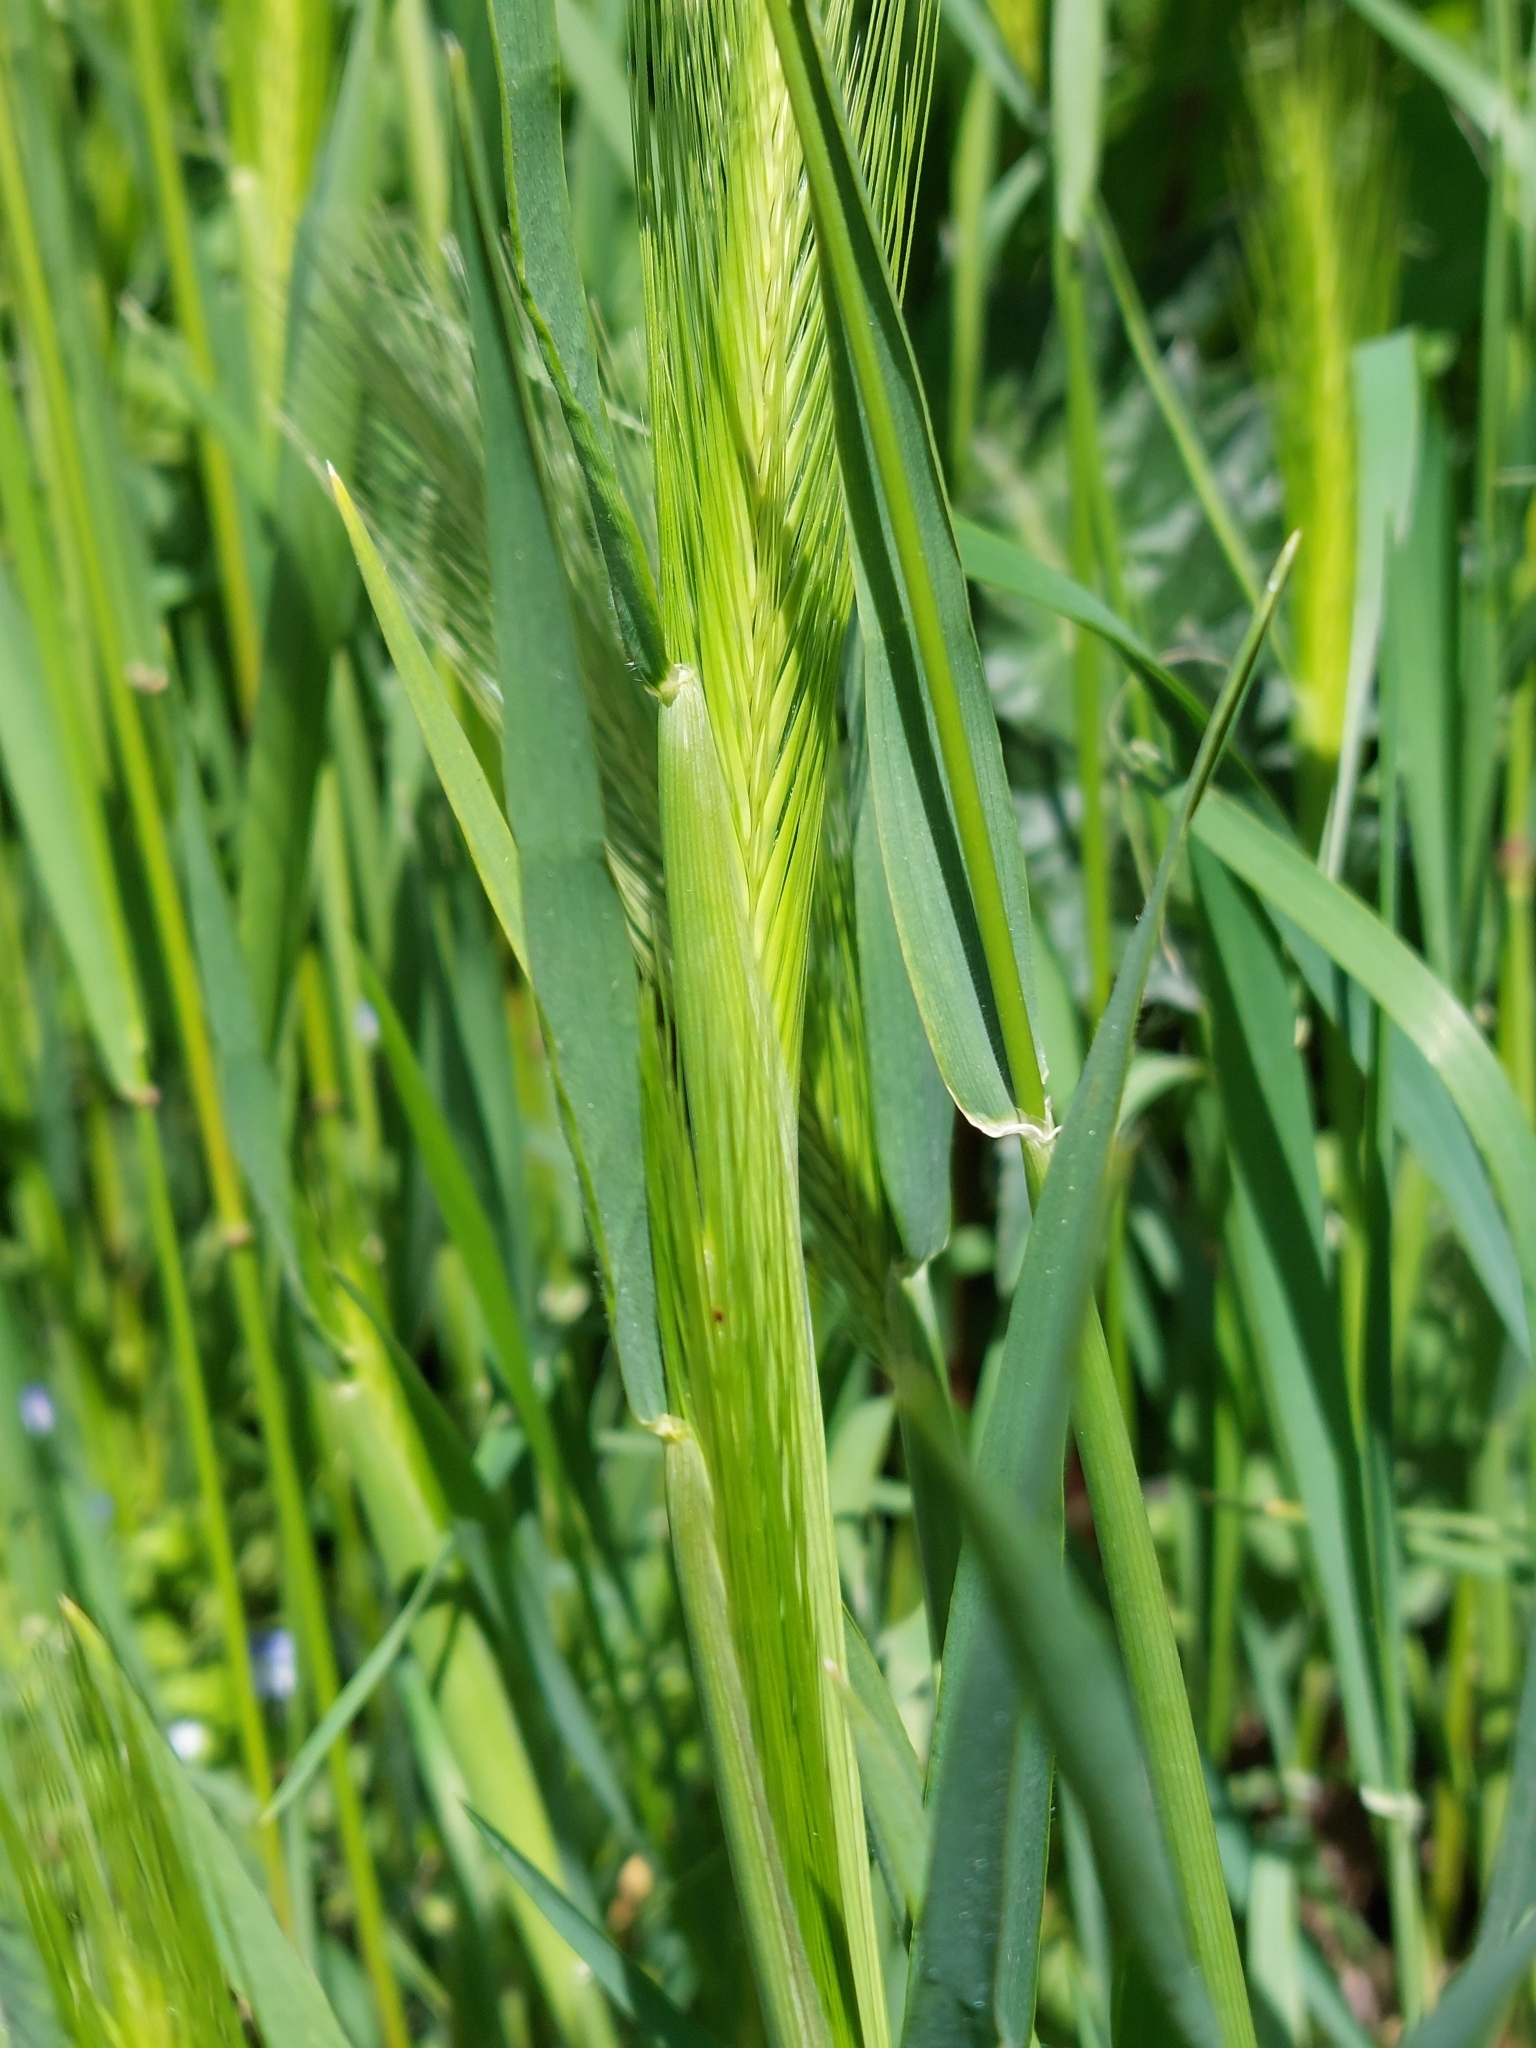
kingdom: Plantae
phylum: Tracheophyta
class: Liliopsida
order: Poales
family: Poaceae
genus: Hordeum
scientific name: Hordeum murinum
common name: Wall barley
